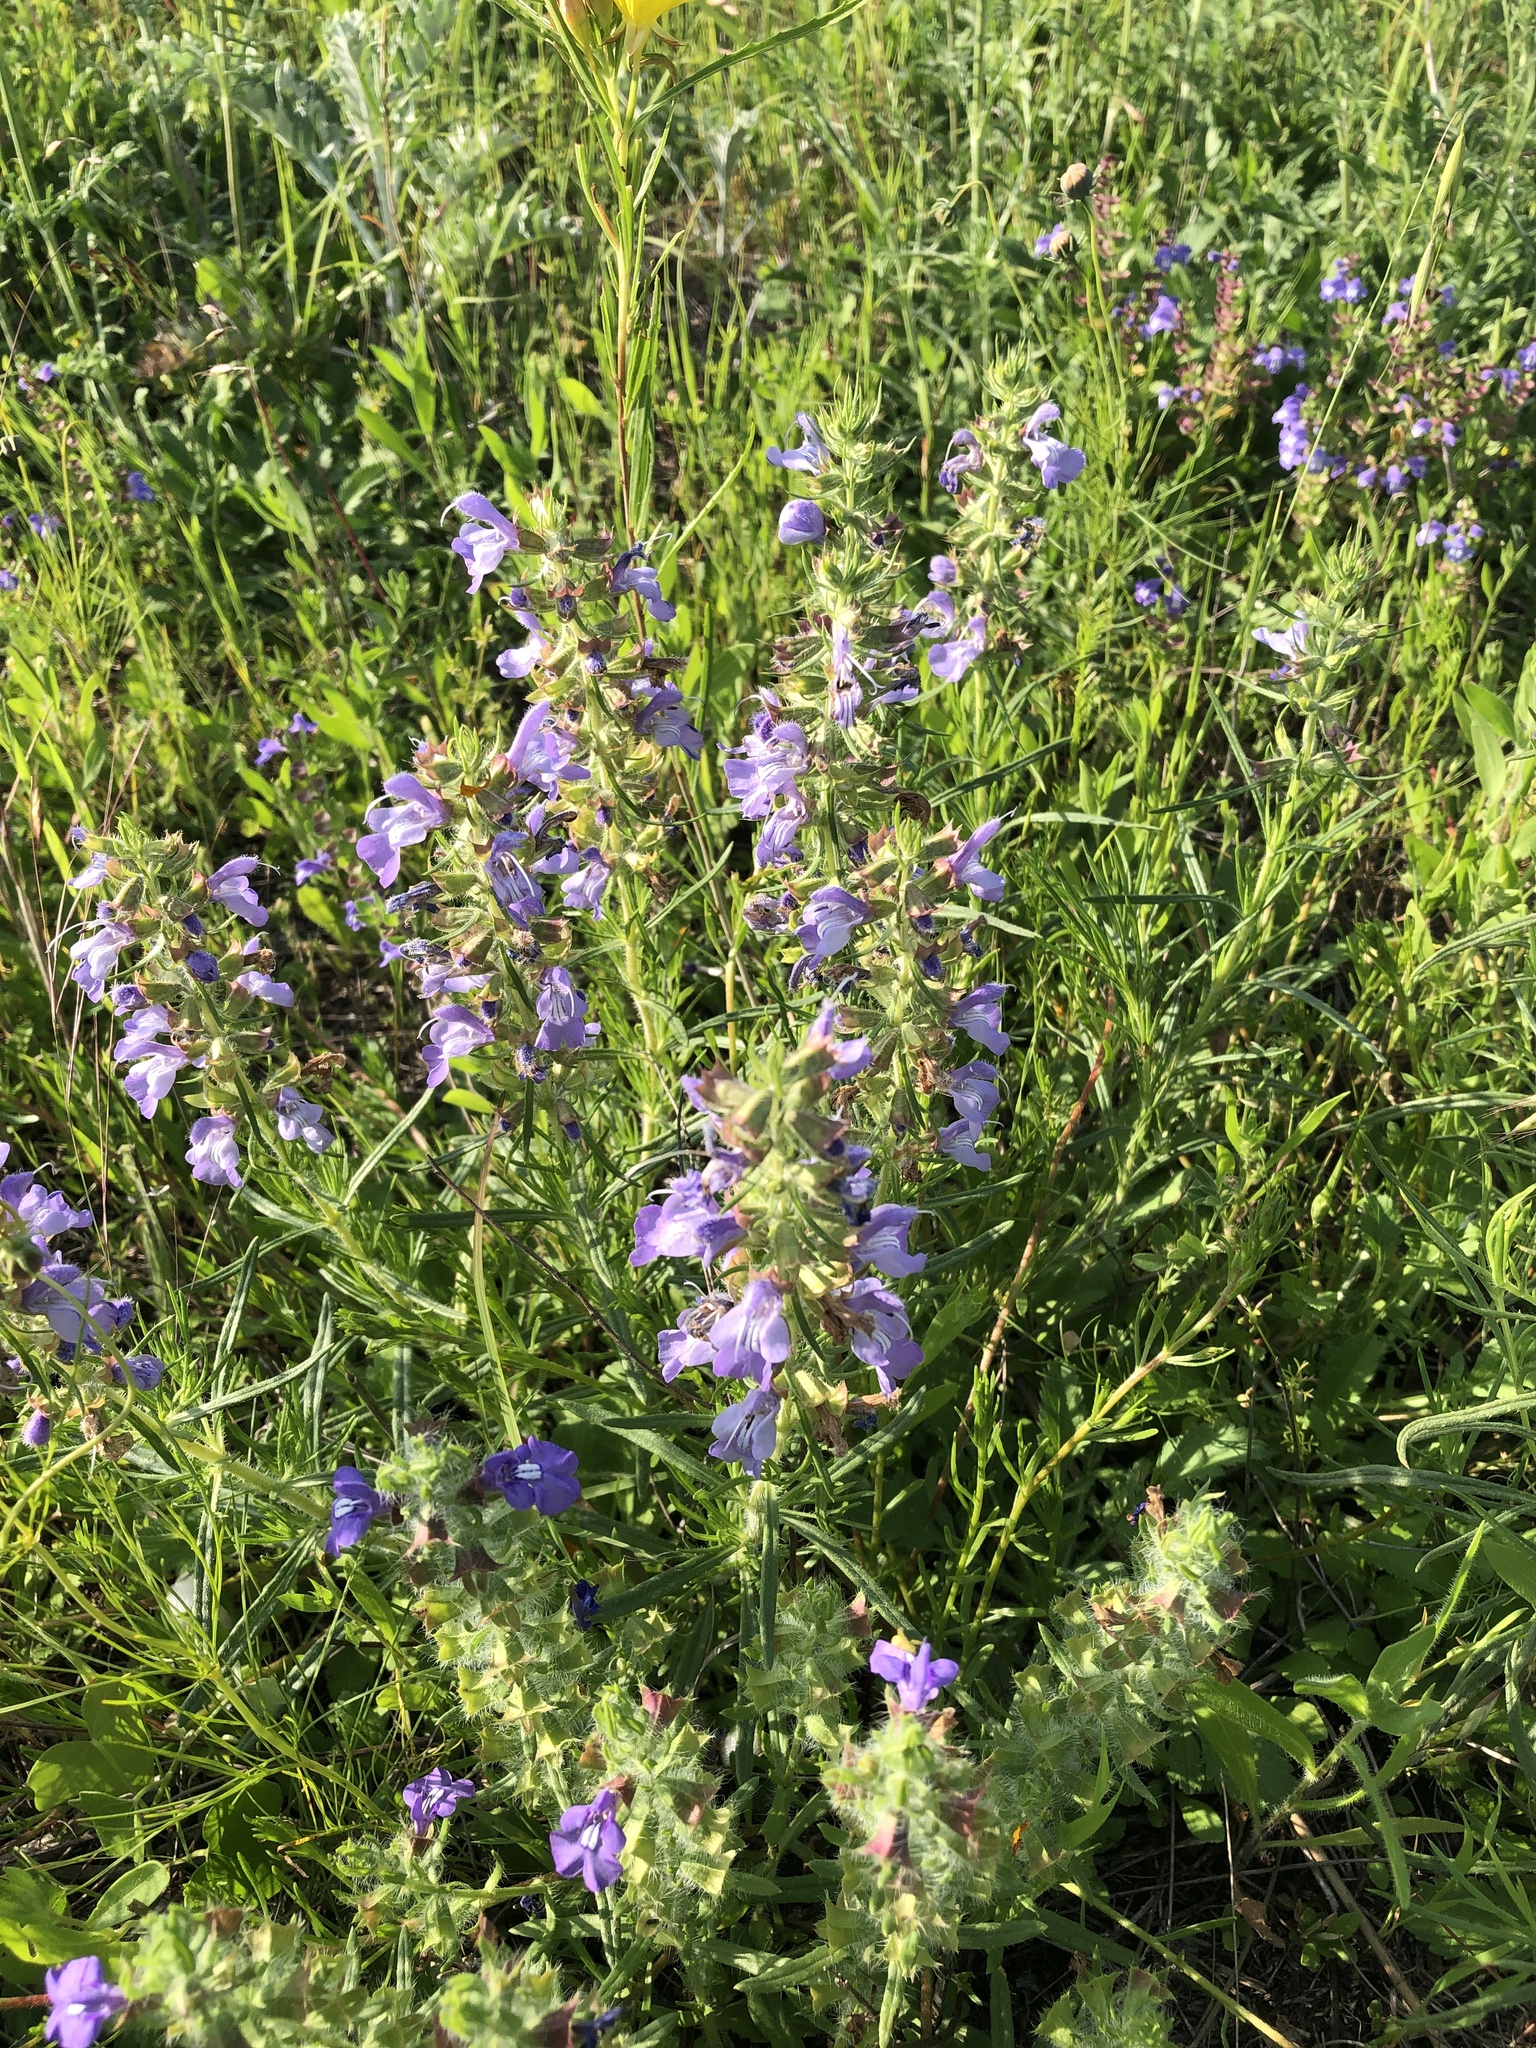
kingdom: Plantae
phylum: Tracheophyta
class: Magnoliopsida
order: Lamiales
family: Lamiaceae
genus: Salvia
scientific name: Salvia engelmannii
